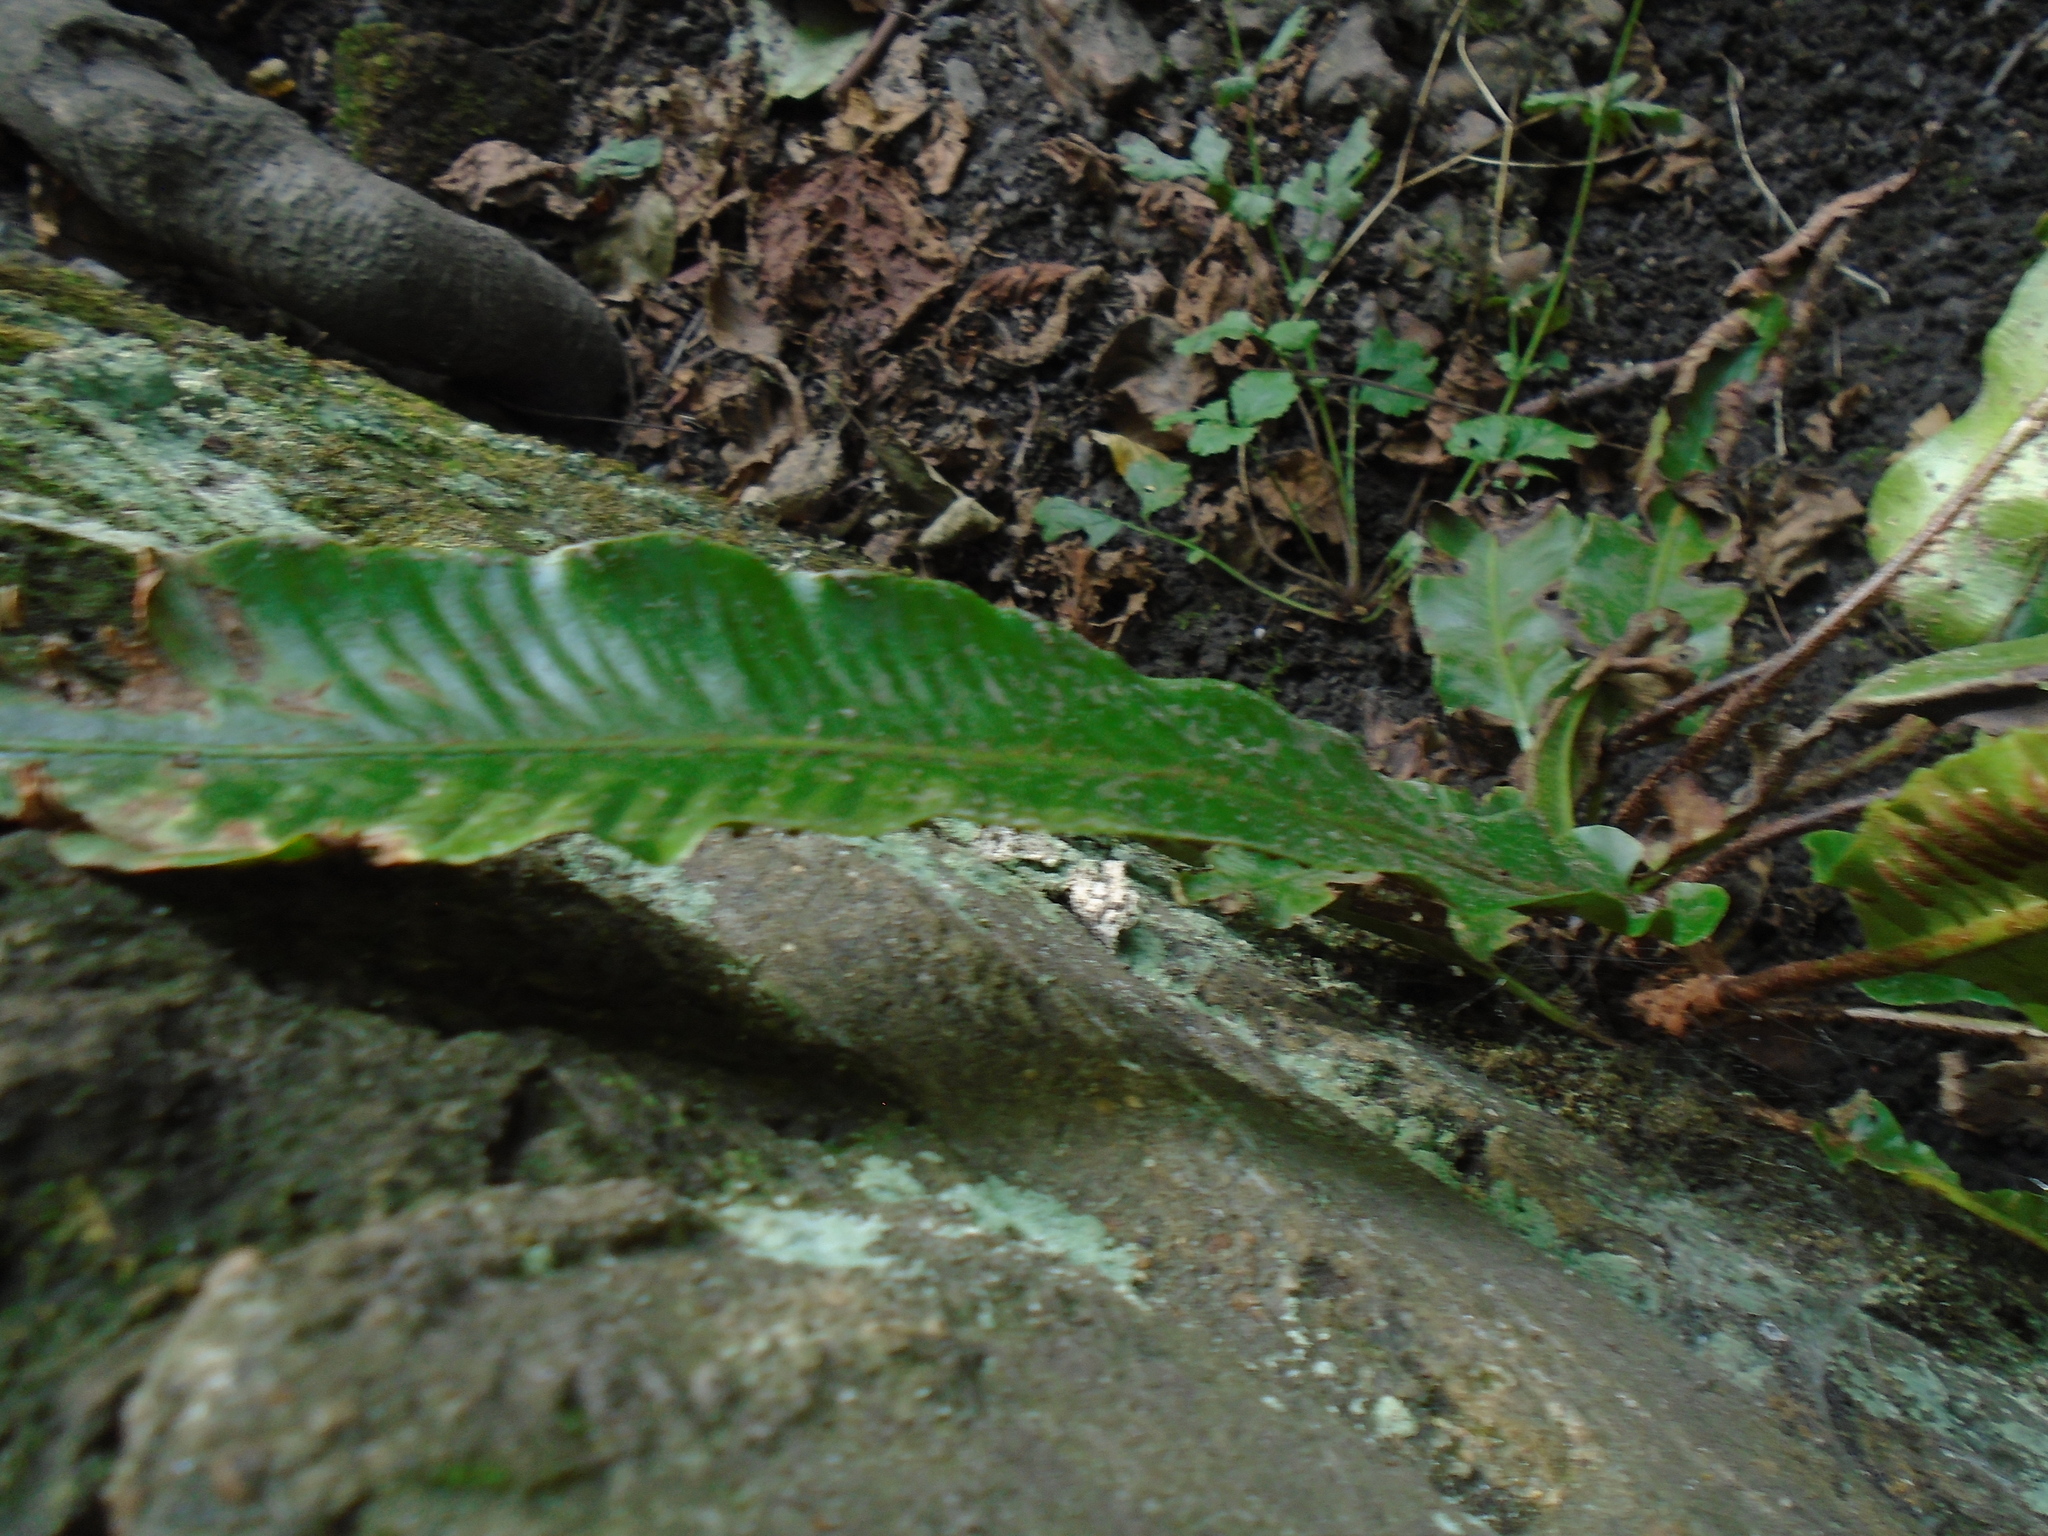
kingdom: Plantae
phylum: Tracheophyta
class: Polypodiopsida
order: Polypodiales
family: Aspleniaceae
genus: Asplenium
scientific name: Asplenium scolopendrium
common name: Hart's-tongue fern
